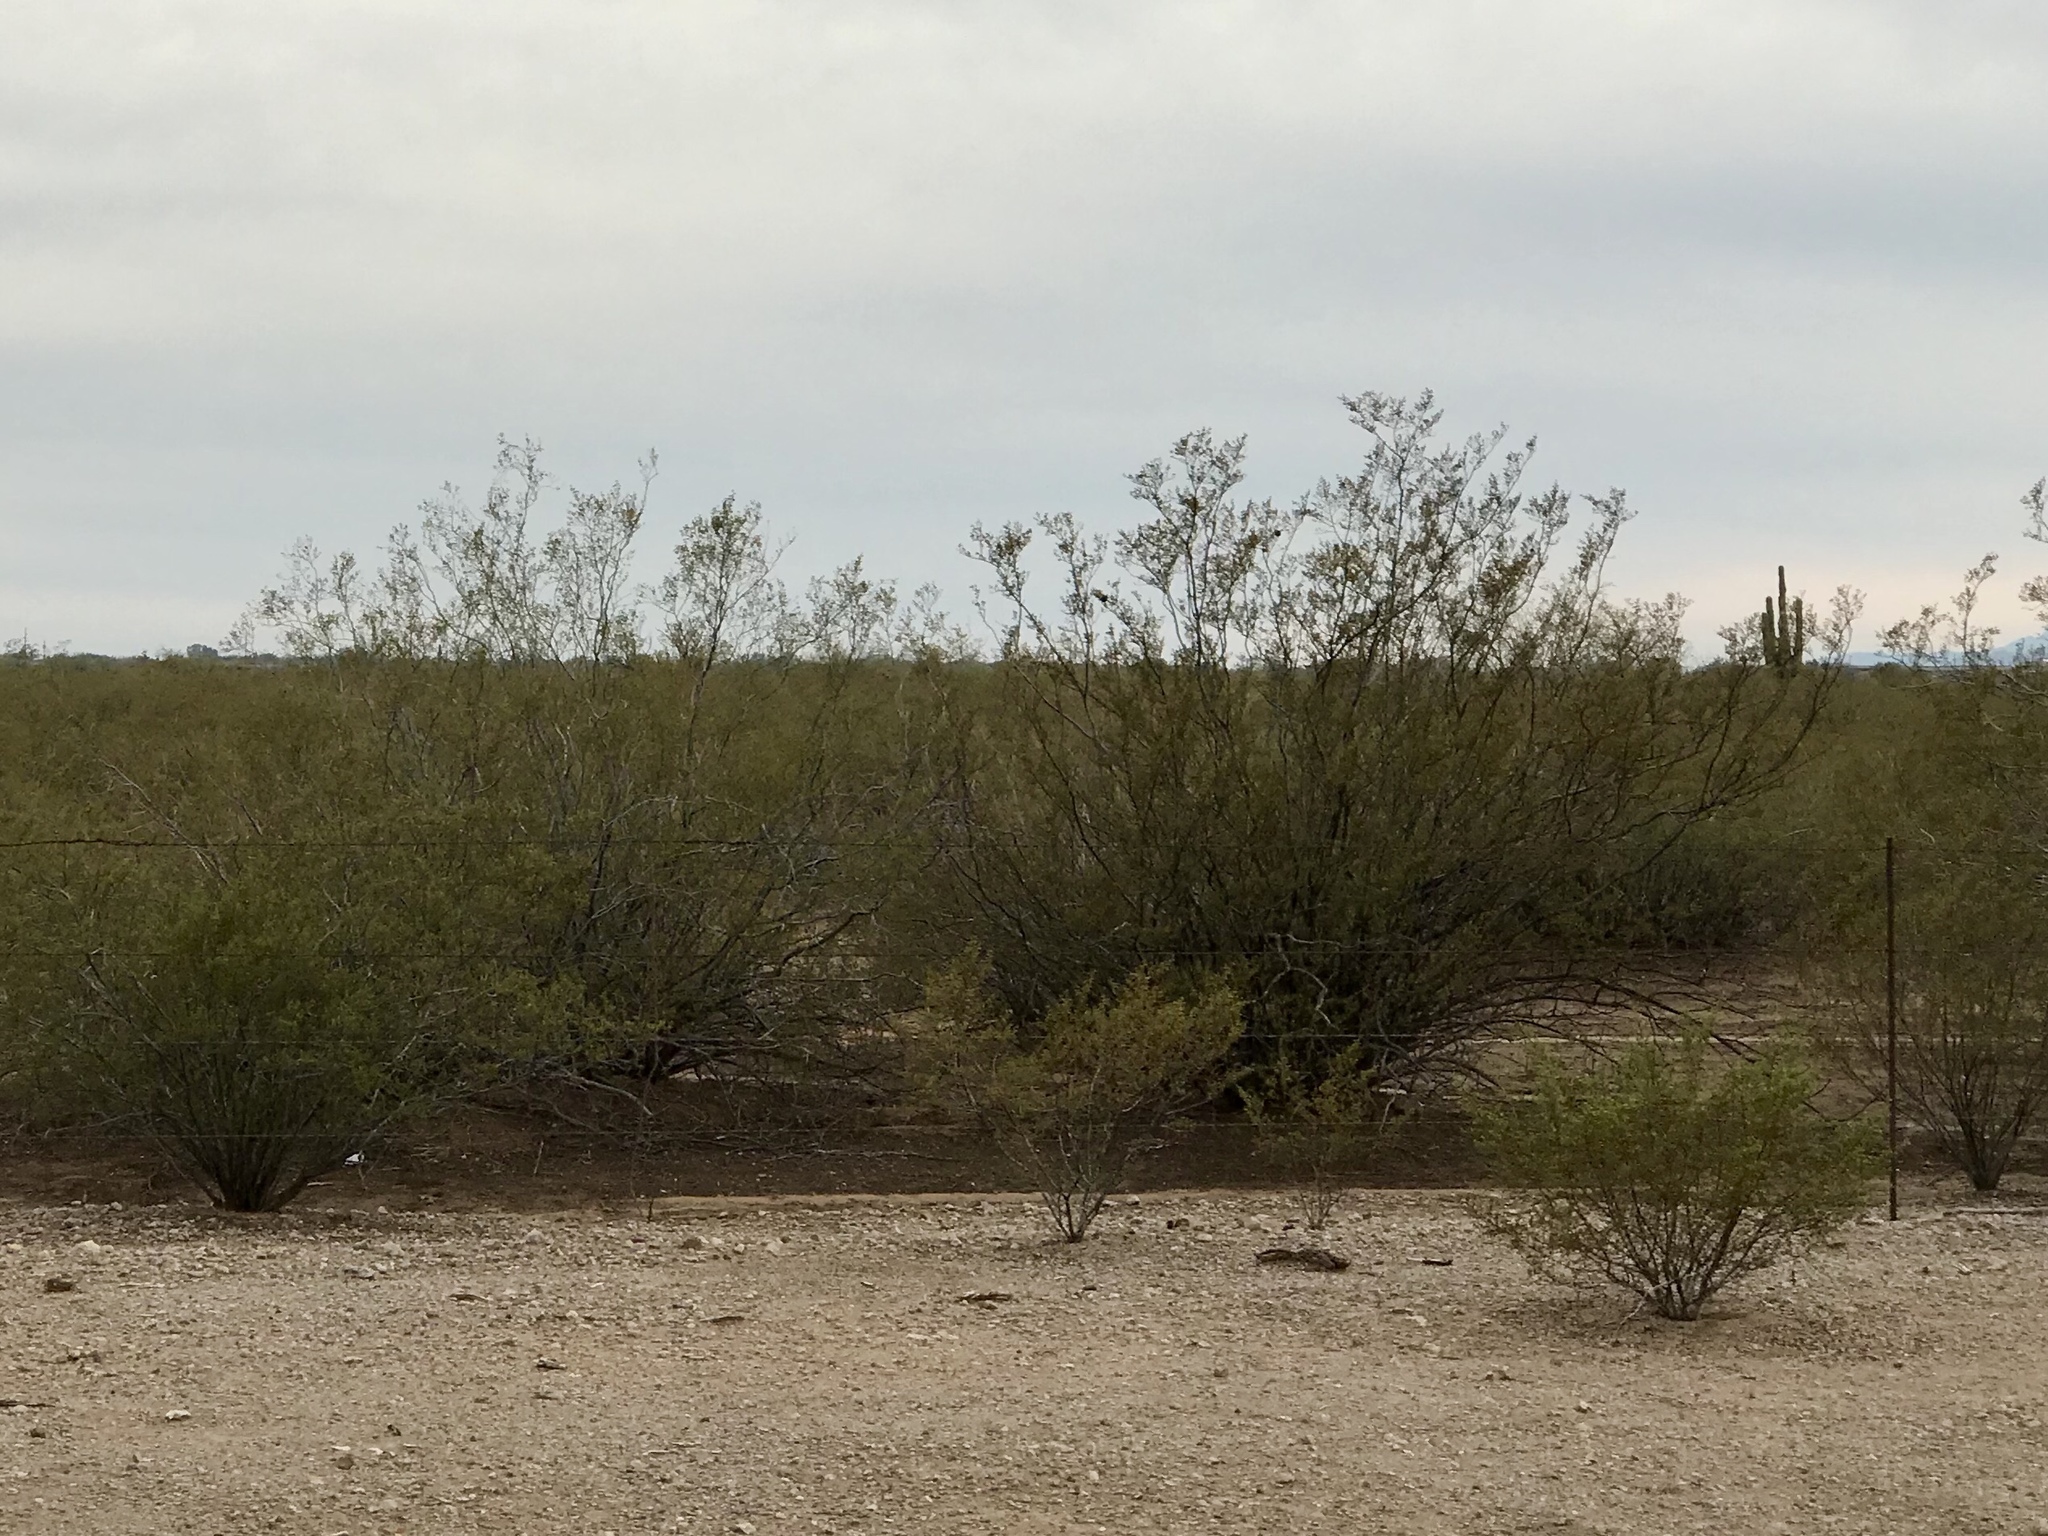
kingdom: Plantae
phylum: Tracheophyta
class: Magnoliopsida
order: Zygophyllales
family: Zygophyllaceae
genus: Larrea
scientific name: Larrea tridentata
